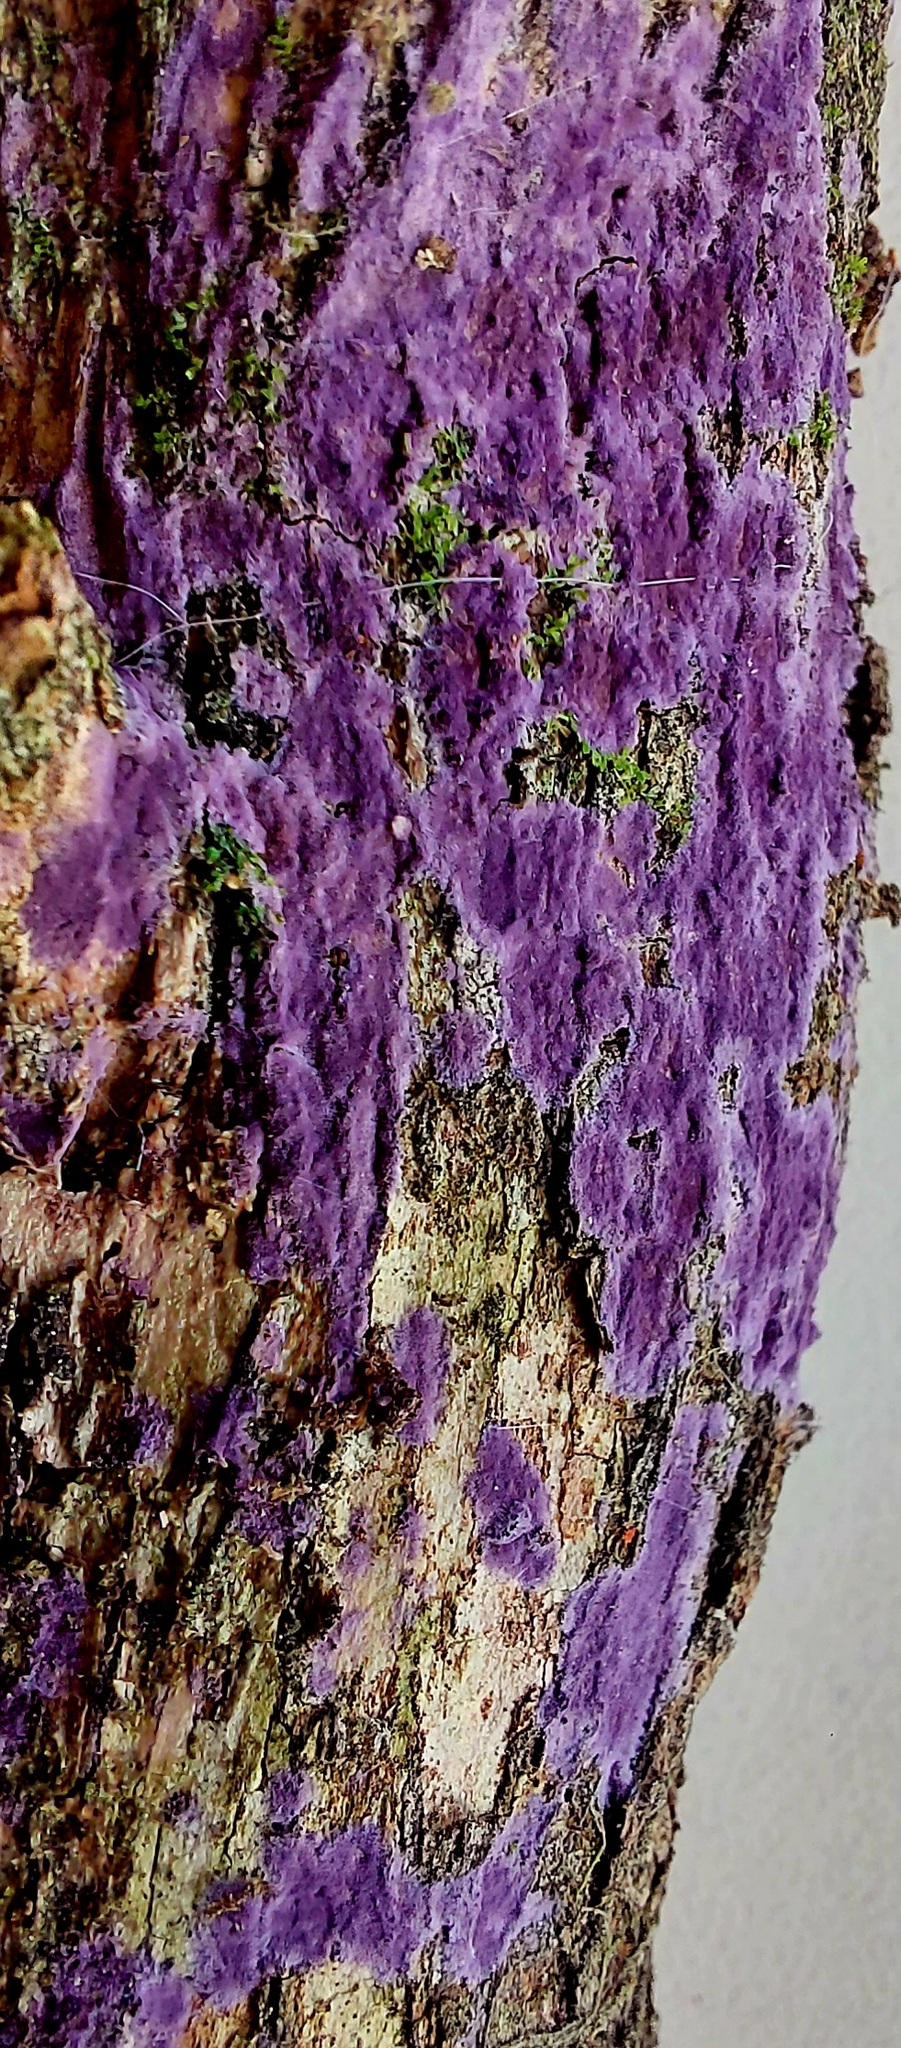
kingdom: Fungi
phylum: Basidiomycota
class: Agaricomycetes
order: Polyporales
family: Irpicaceae
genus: Byssomerulius
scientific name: Byssomerulius psittacinus
